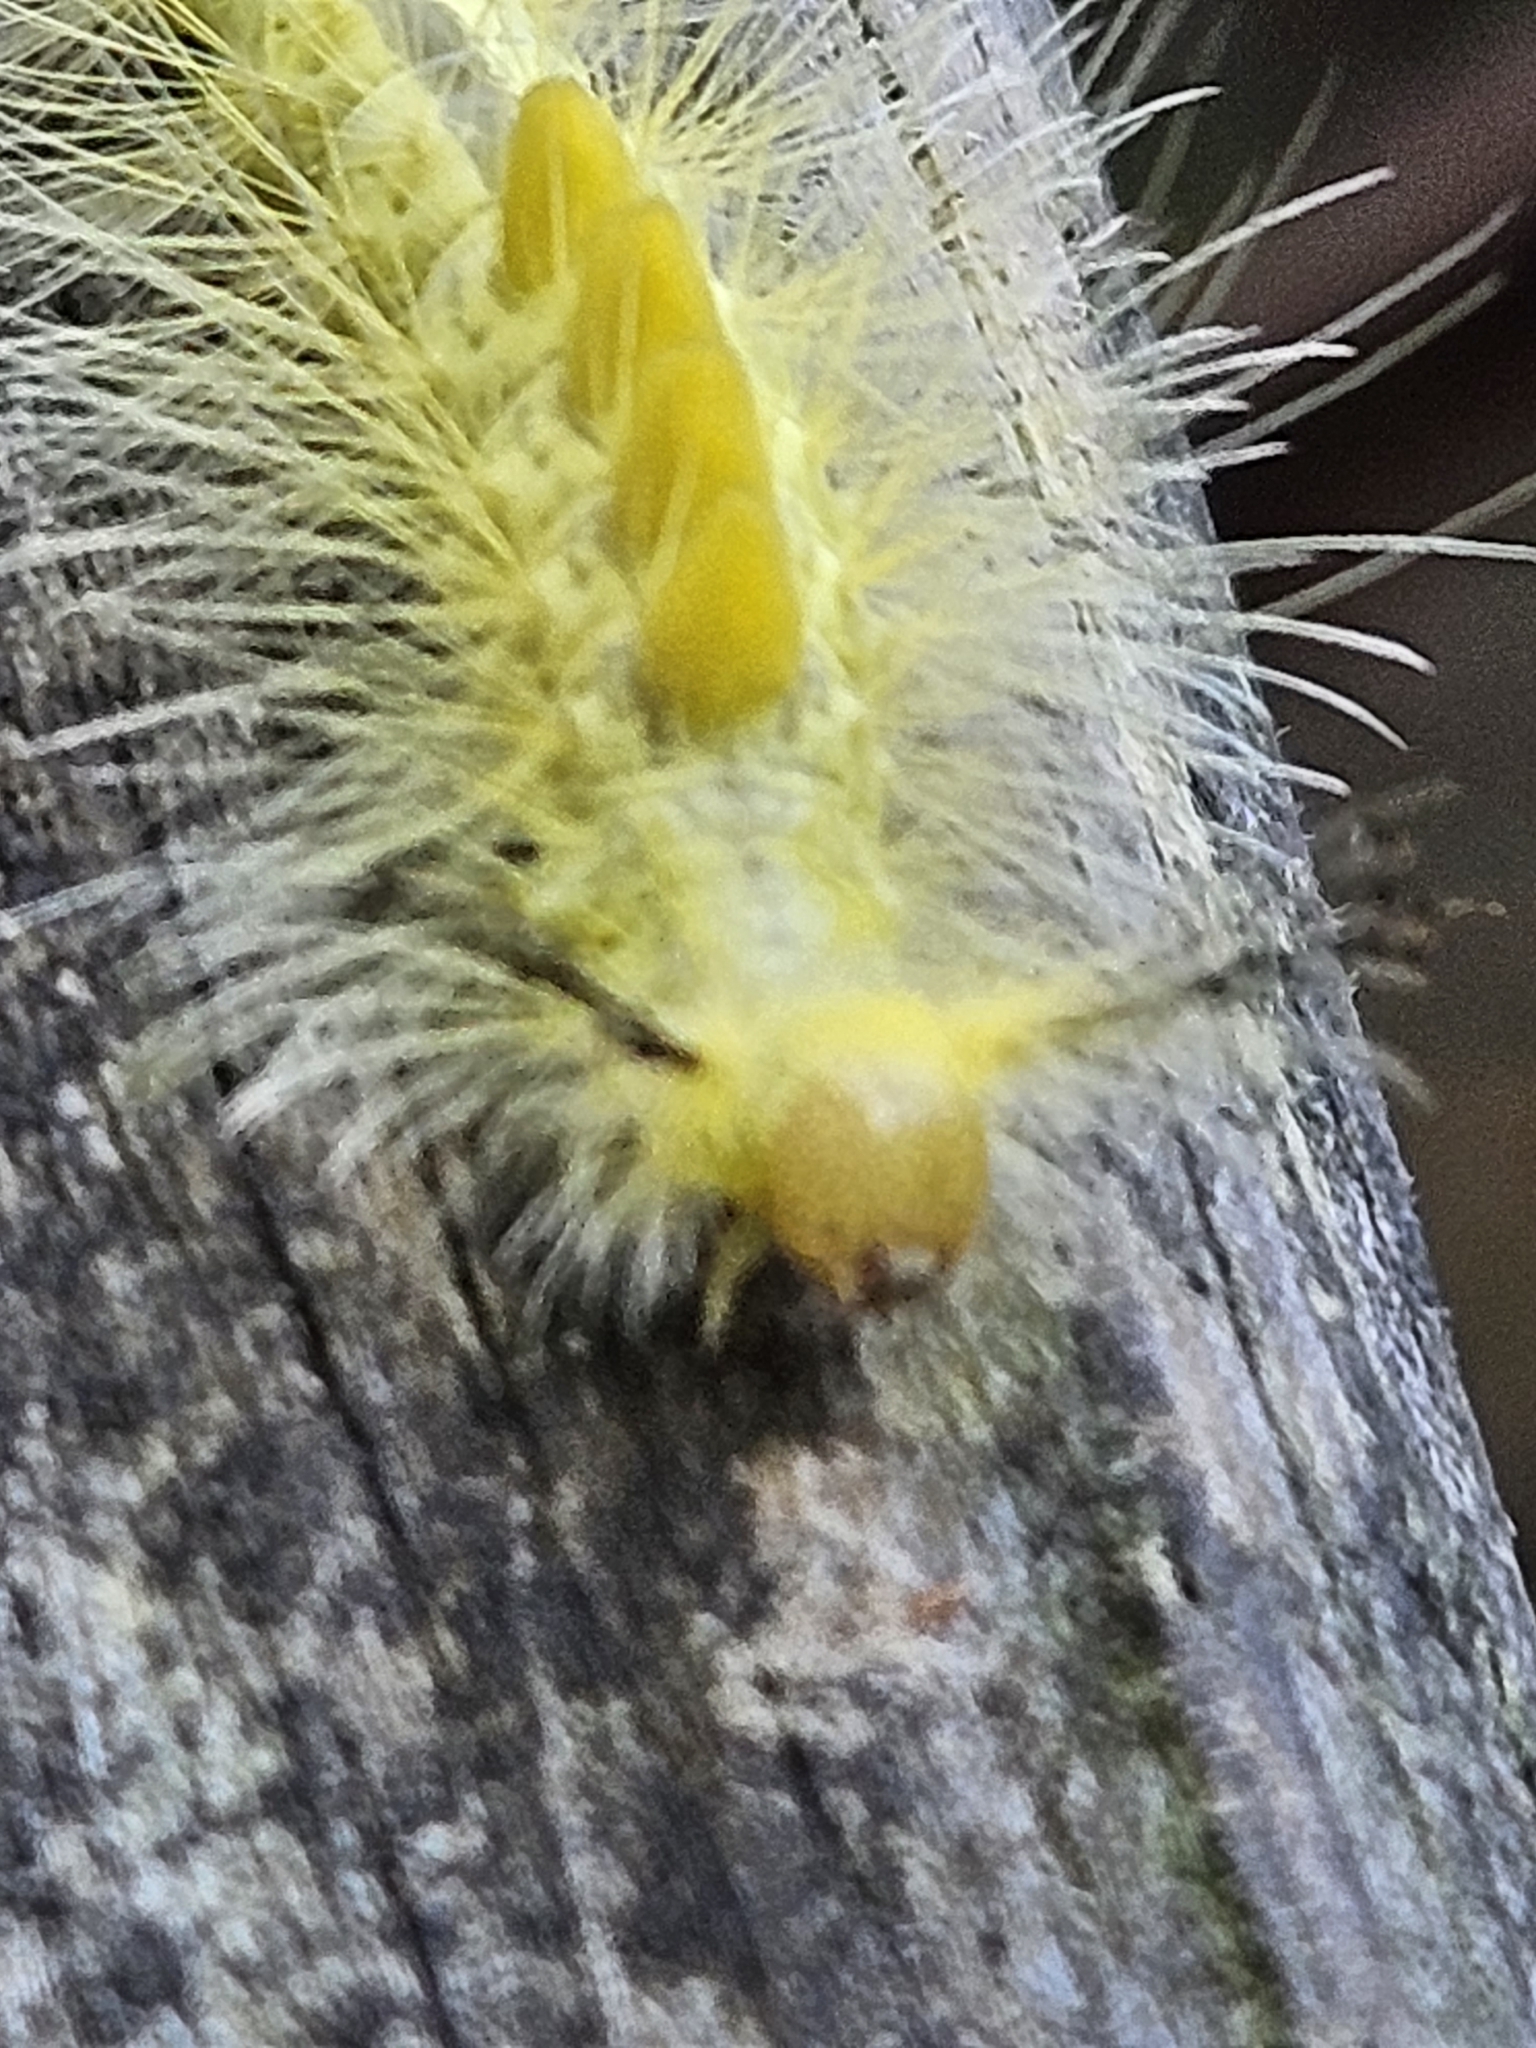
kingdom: Animalia
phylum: Arthropoda
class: Insecta
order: Lepidoptera
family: Erebidae
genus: Orgyia
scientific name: Orgyia definita
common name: Definite tussock moth
